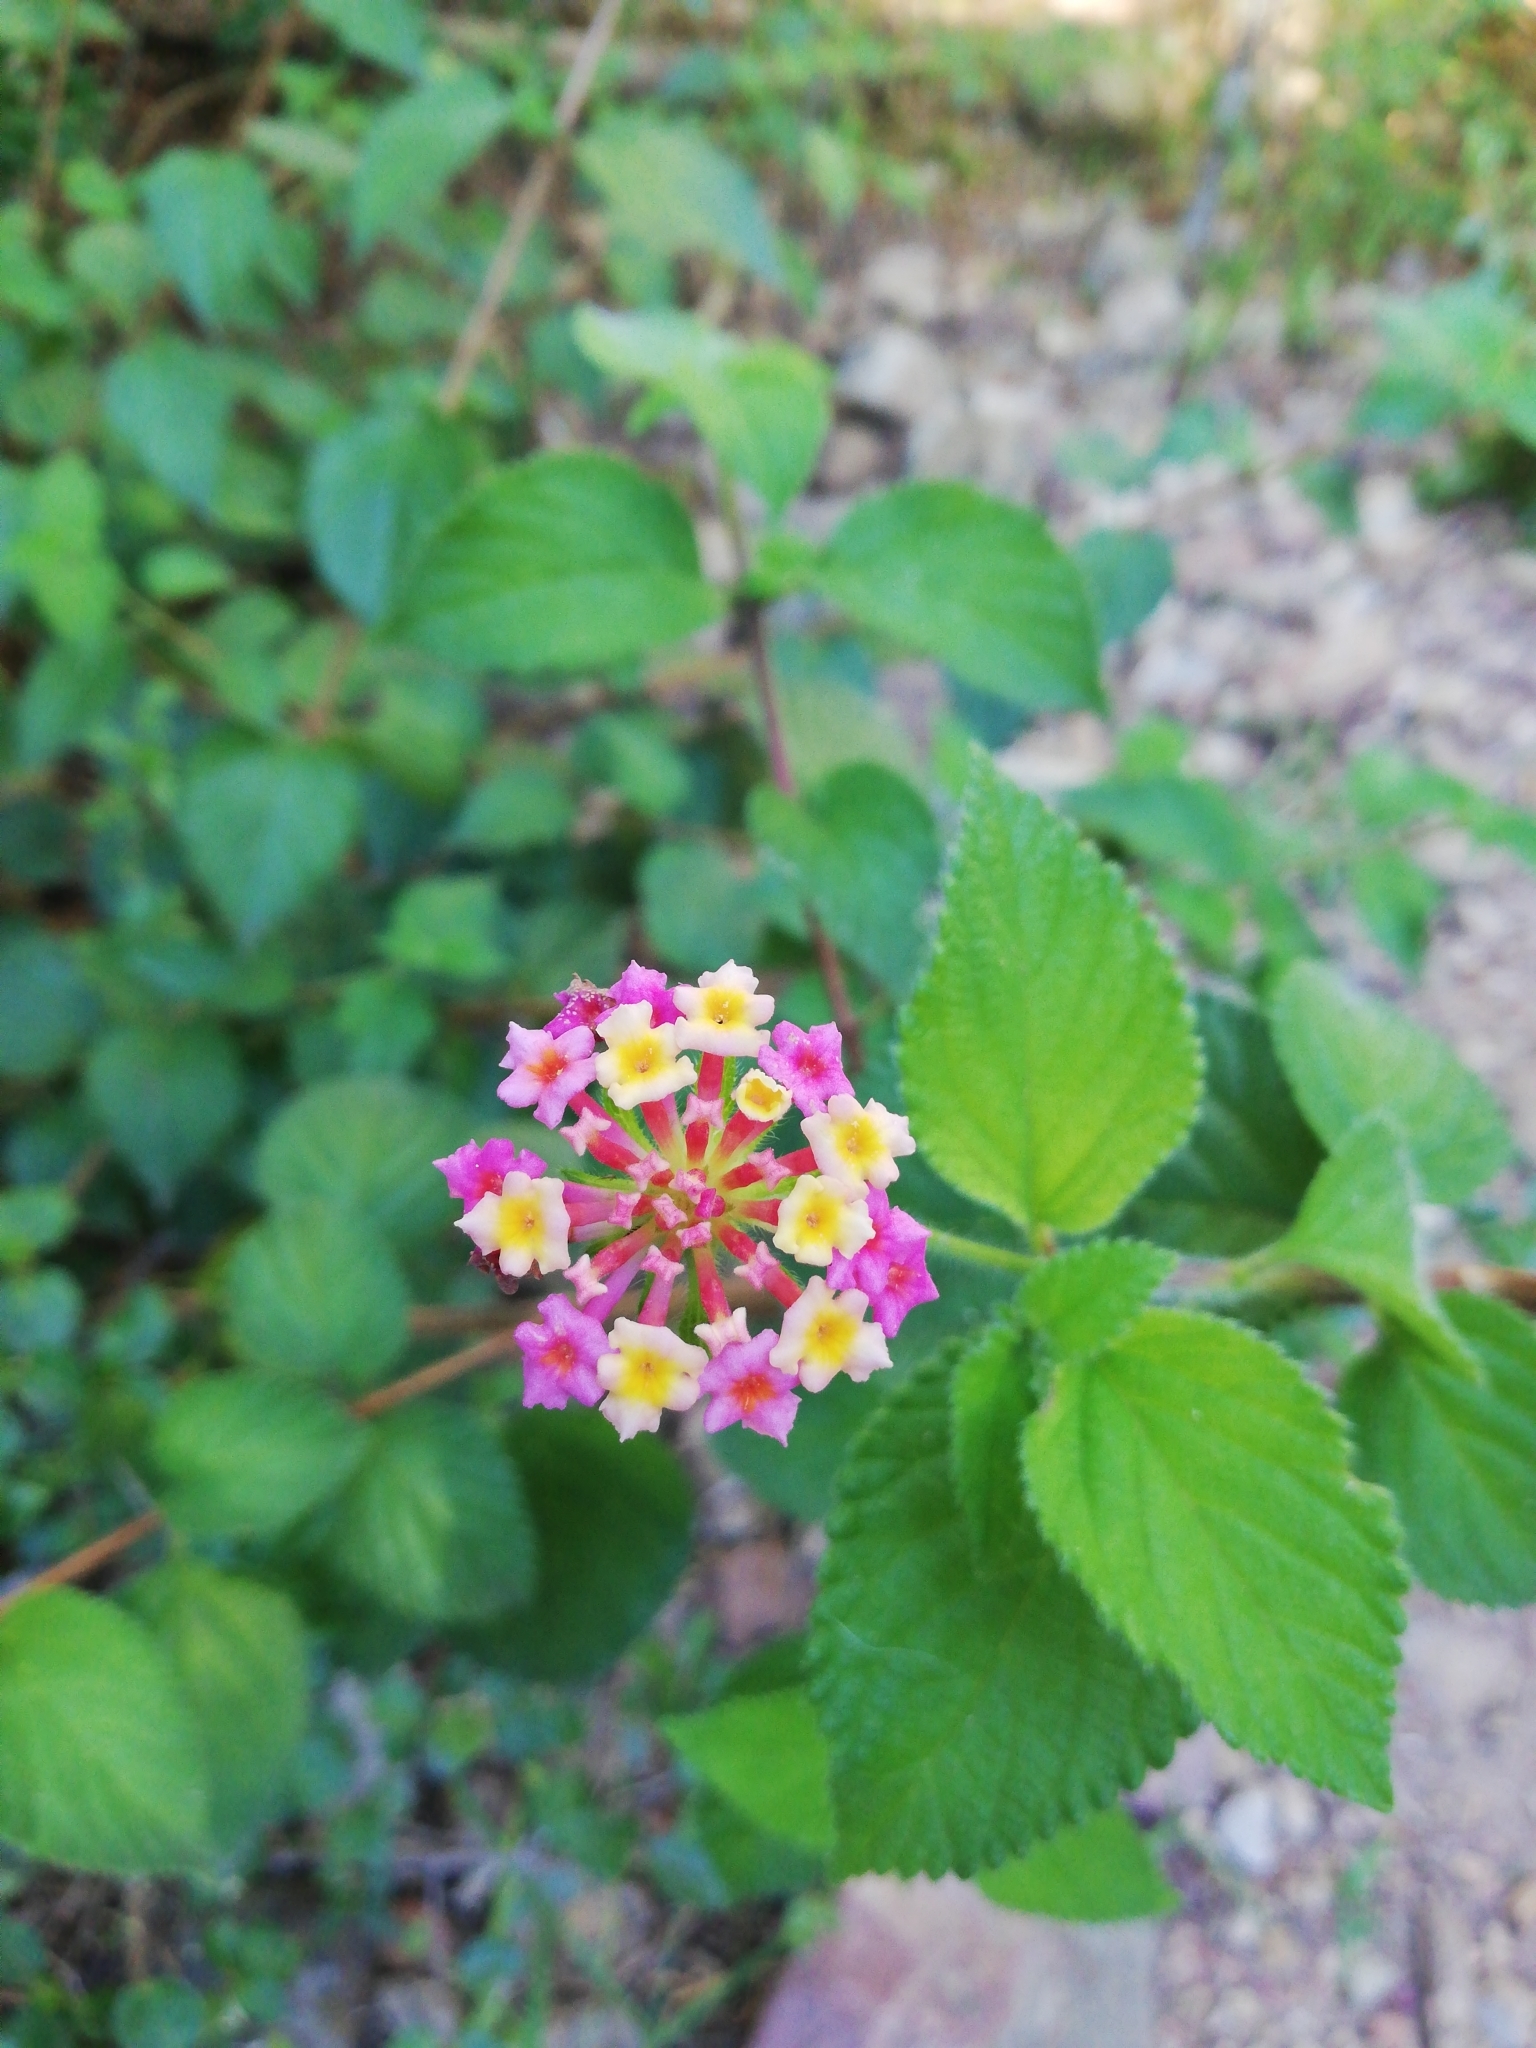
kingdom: Plantae
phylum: Tracheophyta
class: Magnoliopsida
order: Lamiales
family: Verbenaceae
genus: Lantana
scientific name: Lantana camara
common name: Lantana
